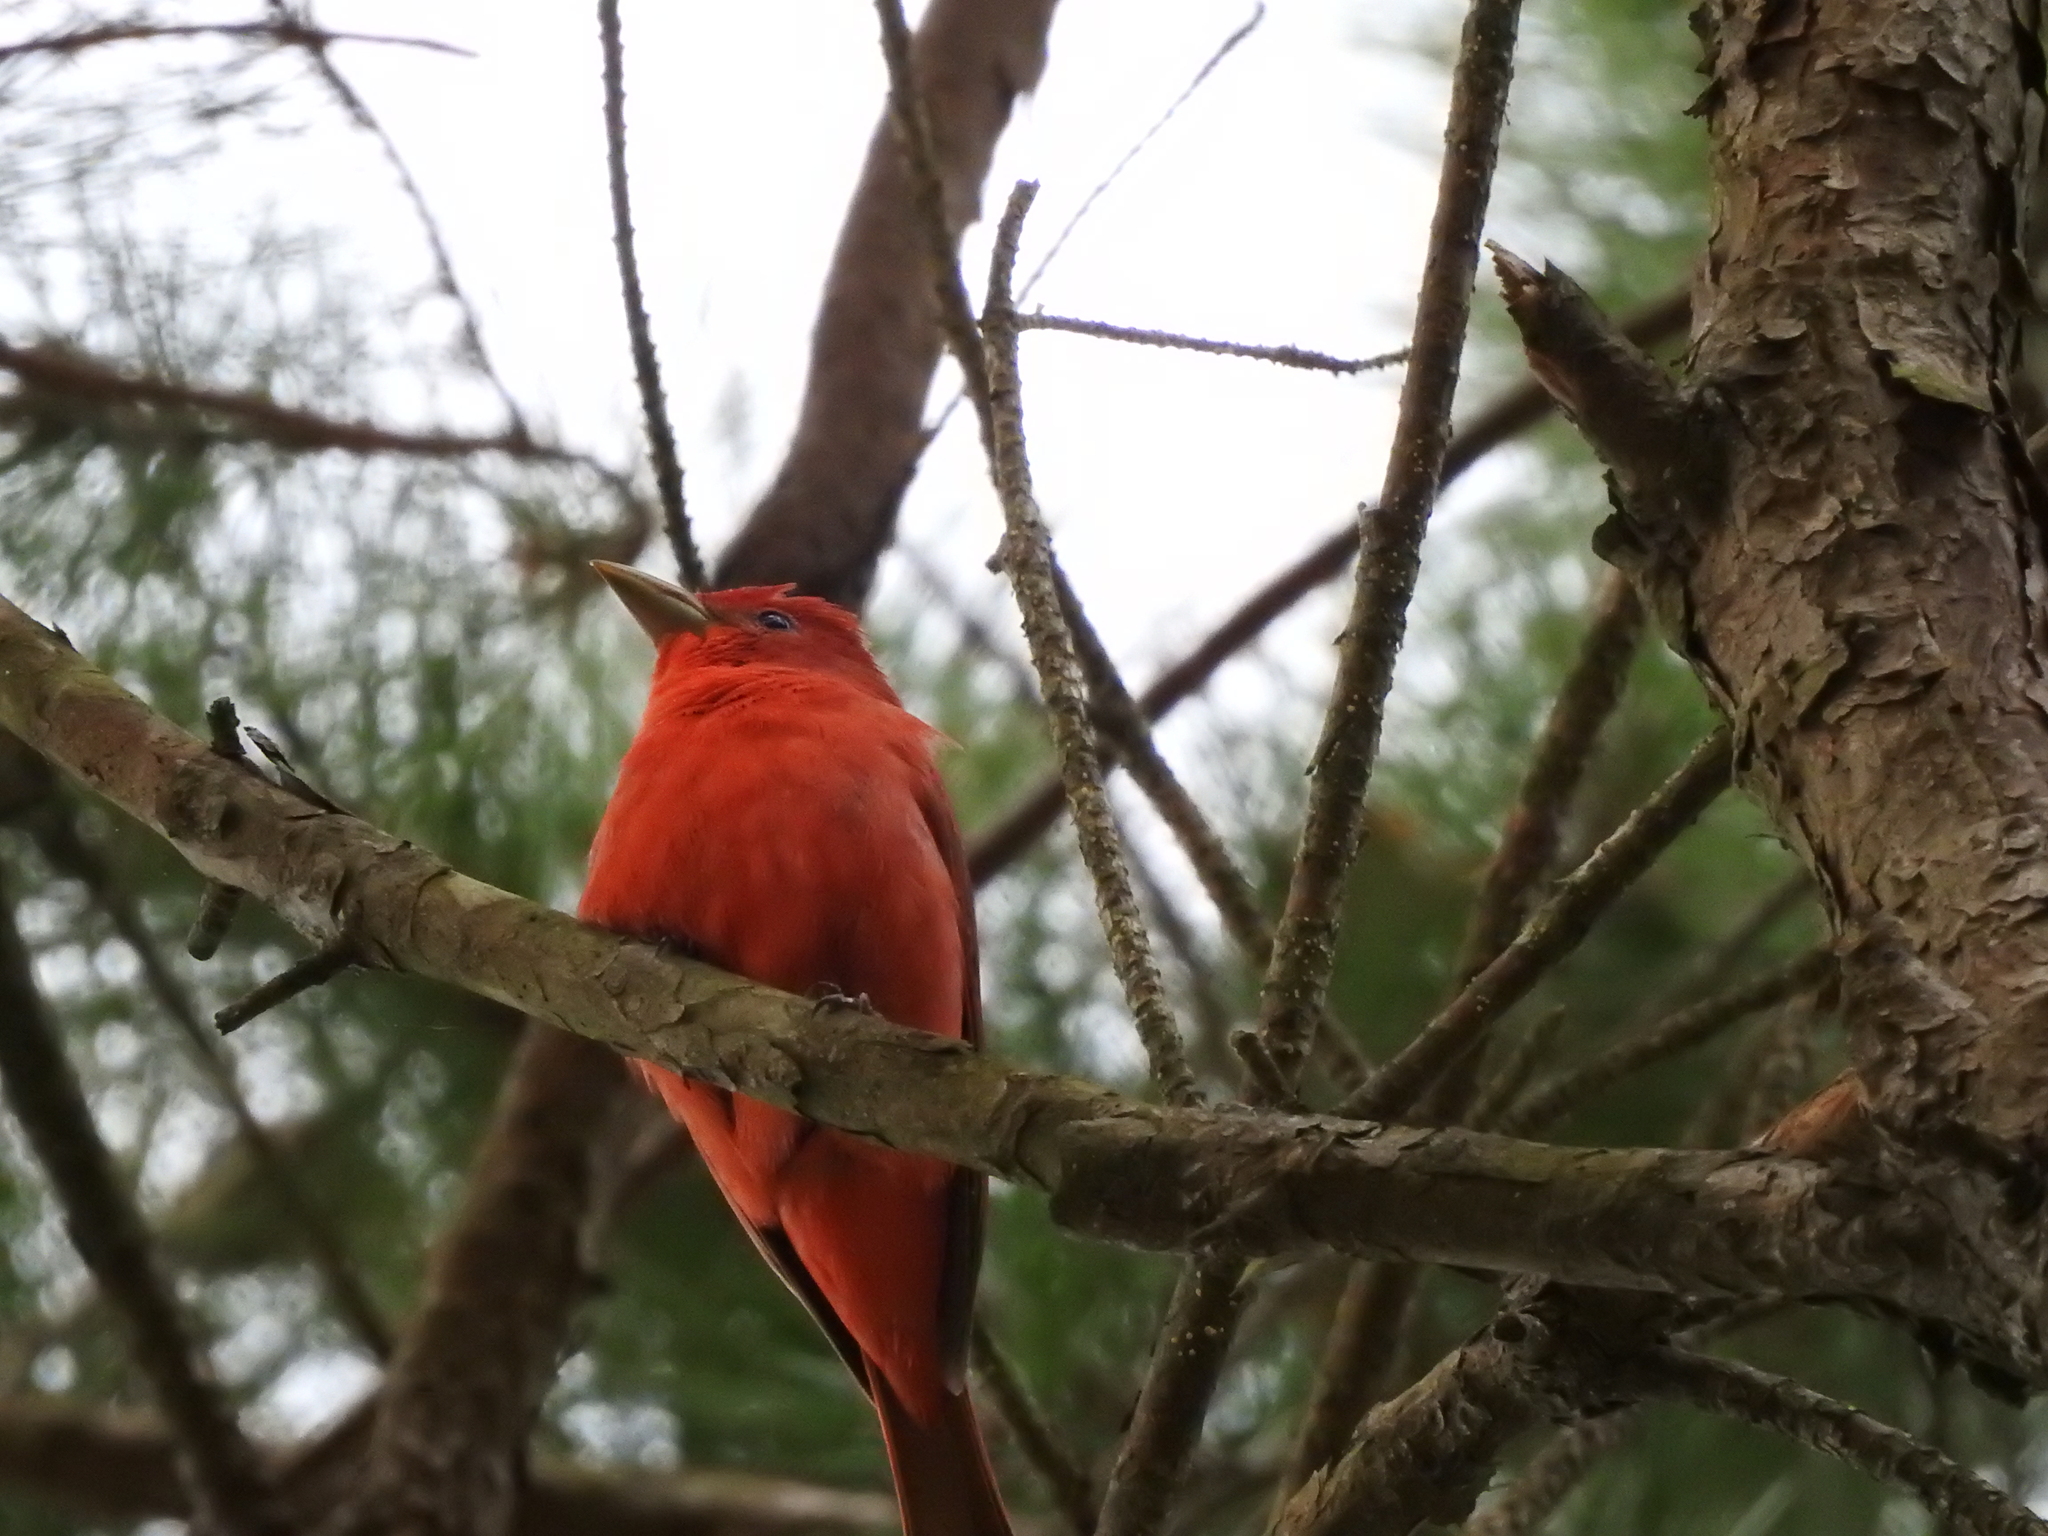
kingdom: Animalia
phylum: Chordata
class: Aves
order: Passeriformes
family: Cardinalidae
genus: Piranga
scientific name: Piranga rubra
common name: Summer tanager
